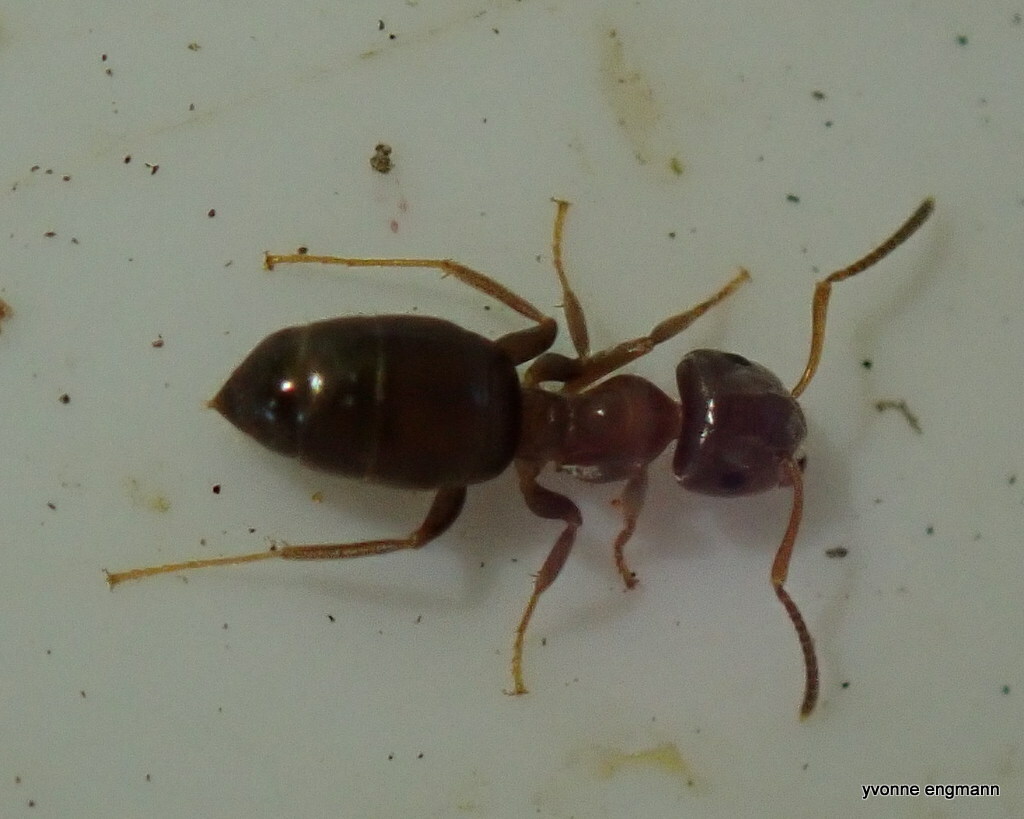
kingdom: Animalia
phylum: Arthropoda
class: Insecta
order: Hymenoptera
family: Formicidae
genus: Lasius
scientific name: Lasius brunneus
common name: Brown ant
